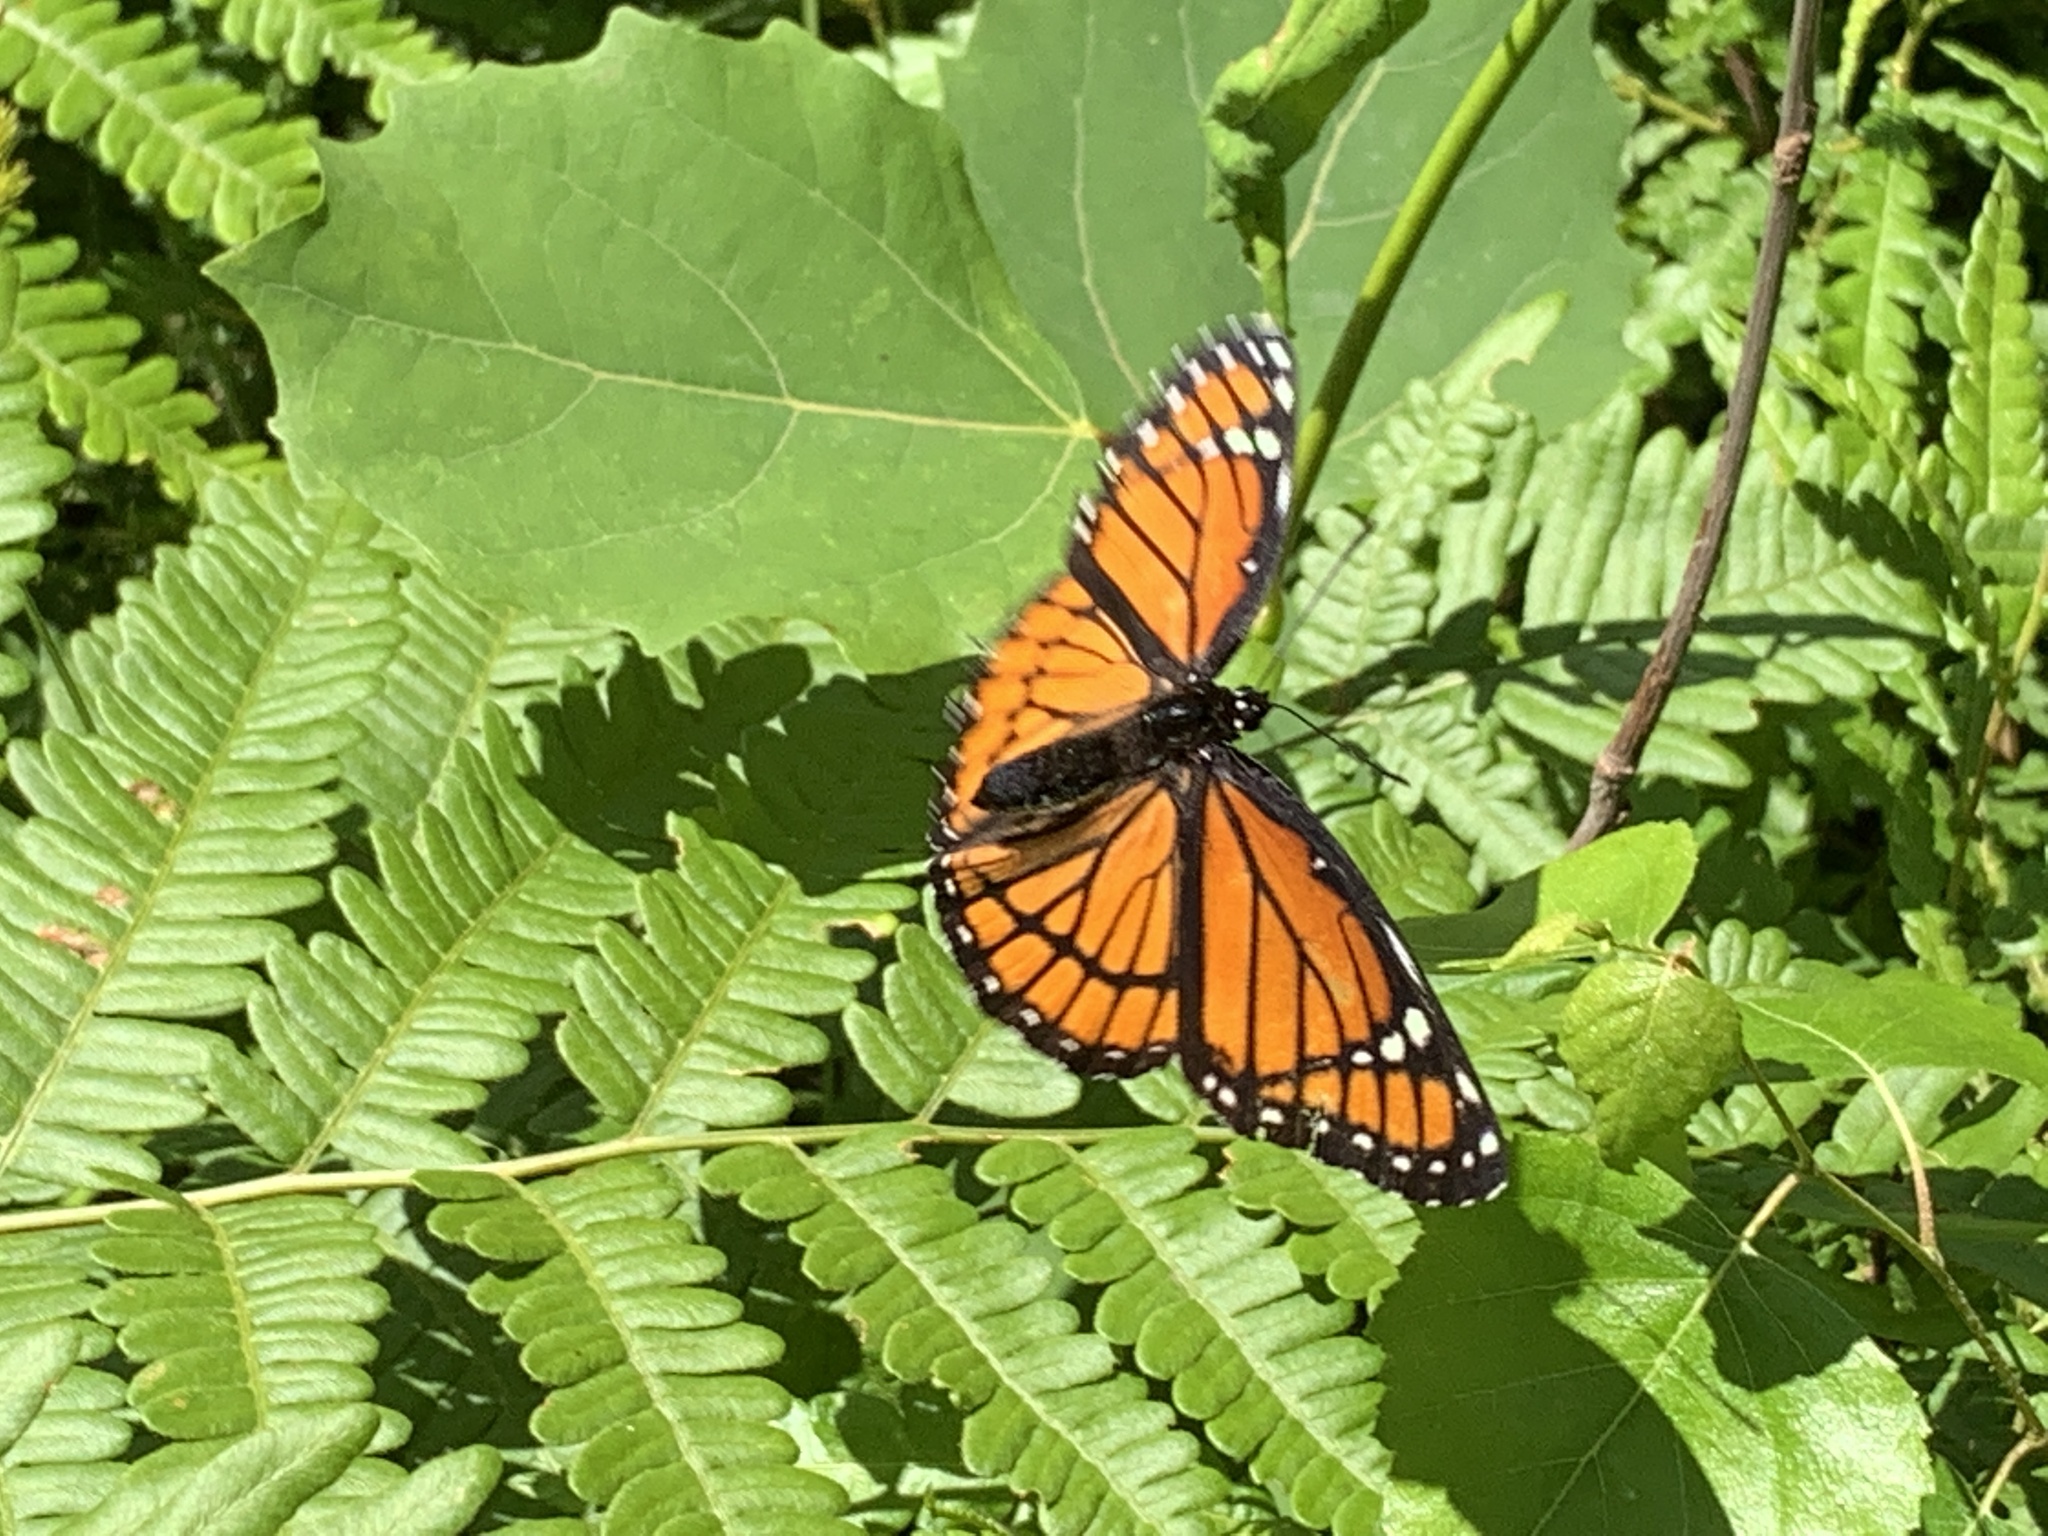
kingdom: Animalia
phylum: Arthropoda
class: Insecta
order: Lepidoptera
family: Nymphalidae
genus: Limenitis
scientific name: Limenitis archippus
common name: Viceroy
